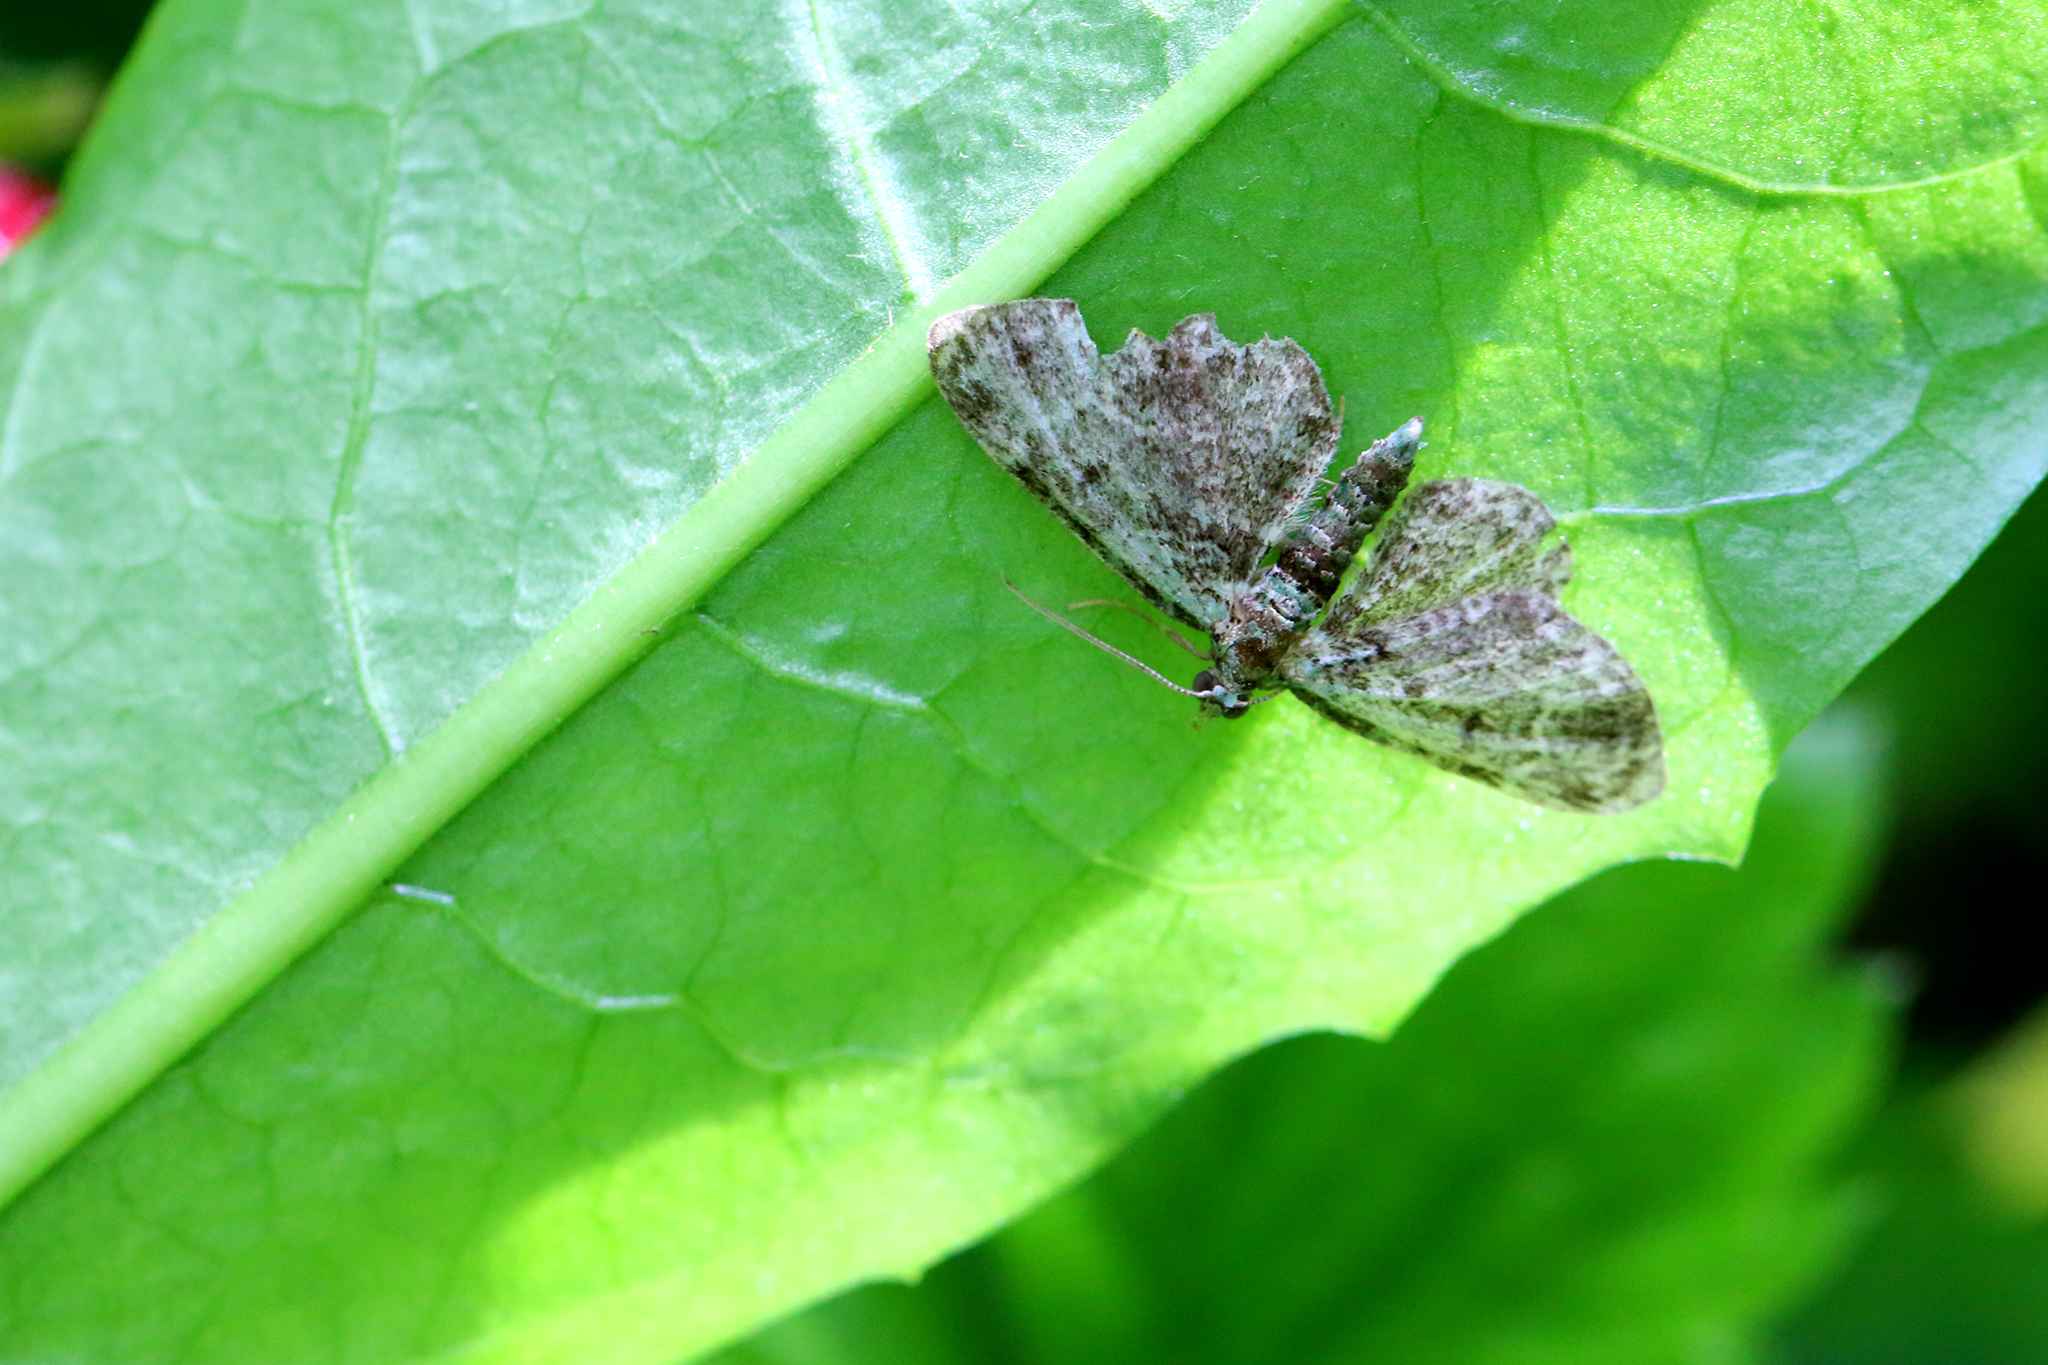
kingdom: Animalia
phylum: Arthropoda
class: Insecta
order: Lepidoptera
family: Geometridae
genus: Pasiphila
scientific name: Pasiphila rectangulata
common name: Green pug
